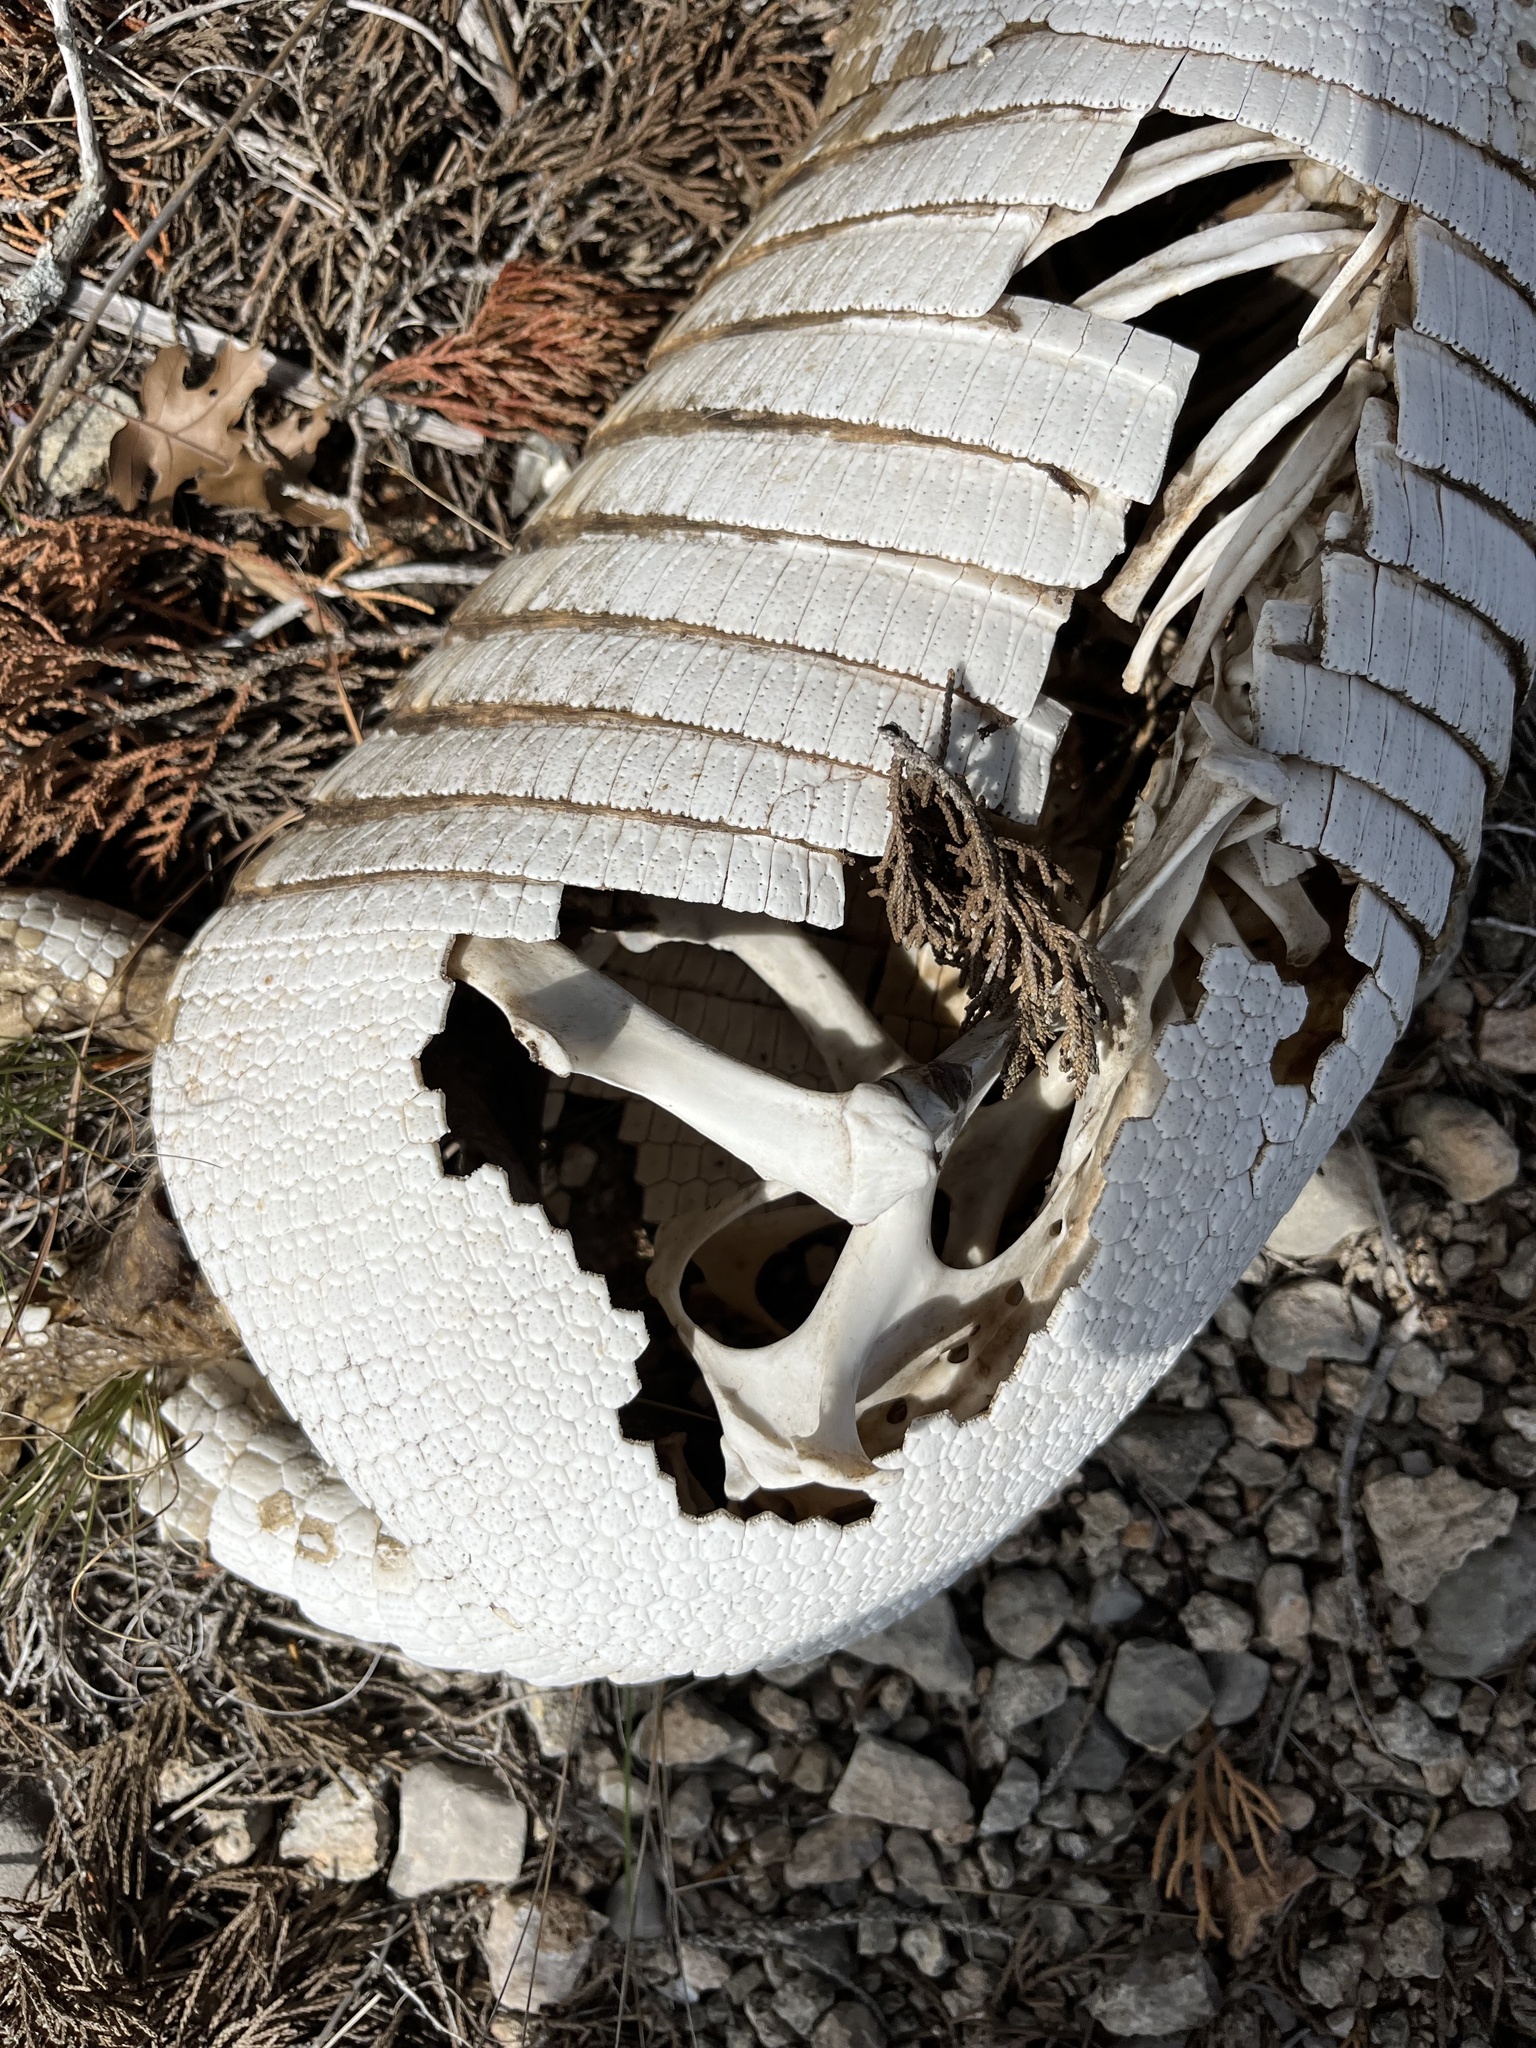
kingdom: Animalia
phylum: Chordata
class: Mammalia
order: Cingulata
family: Dasypodidae
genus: Dasypus
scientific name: Dasypus novemcinctus
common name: Nine-banded armadillo
